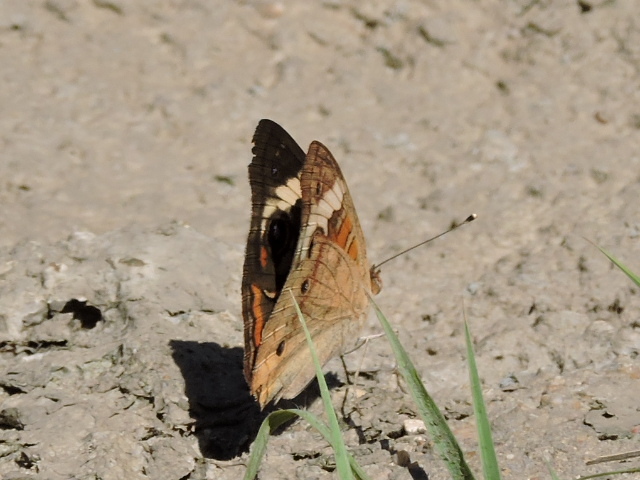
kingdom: Animalia
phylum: Arthropoda
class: Insecta
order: Lepidoptera
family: Nymphalidae
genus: Junonia
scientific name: Junonia coenia
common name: Common buckeye
